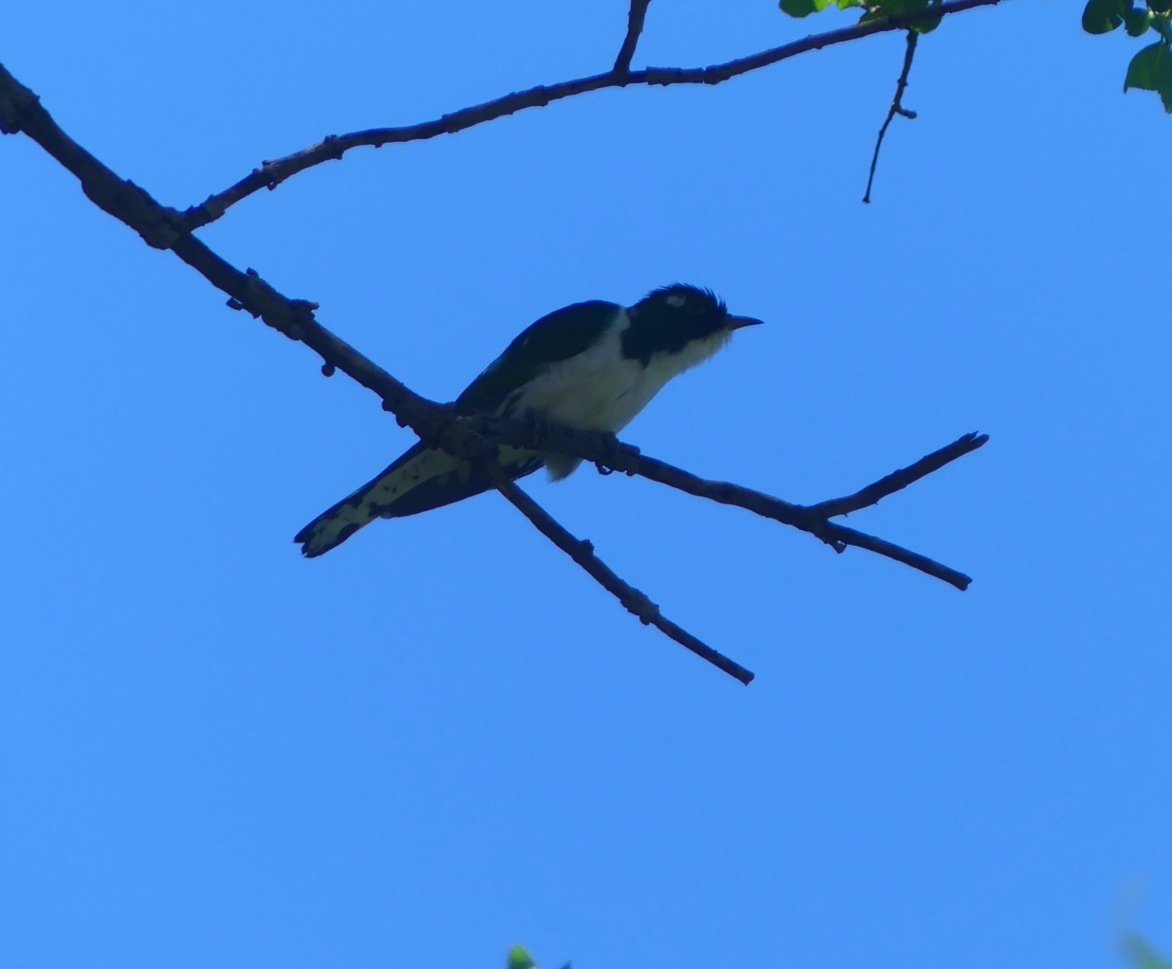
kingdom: Animalia
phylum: Chordata
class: Aves
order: Cuculiformes
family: Cuculidae
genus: Chrysococcyx
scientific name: Chrysococcyx klaas
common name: Klaas's cuckoo
